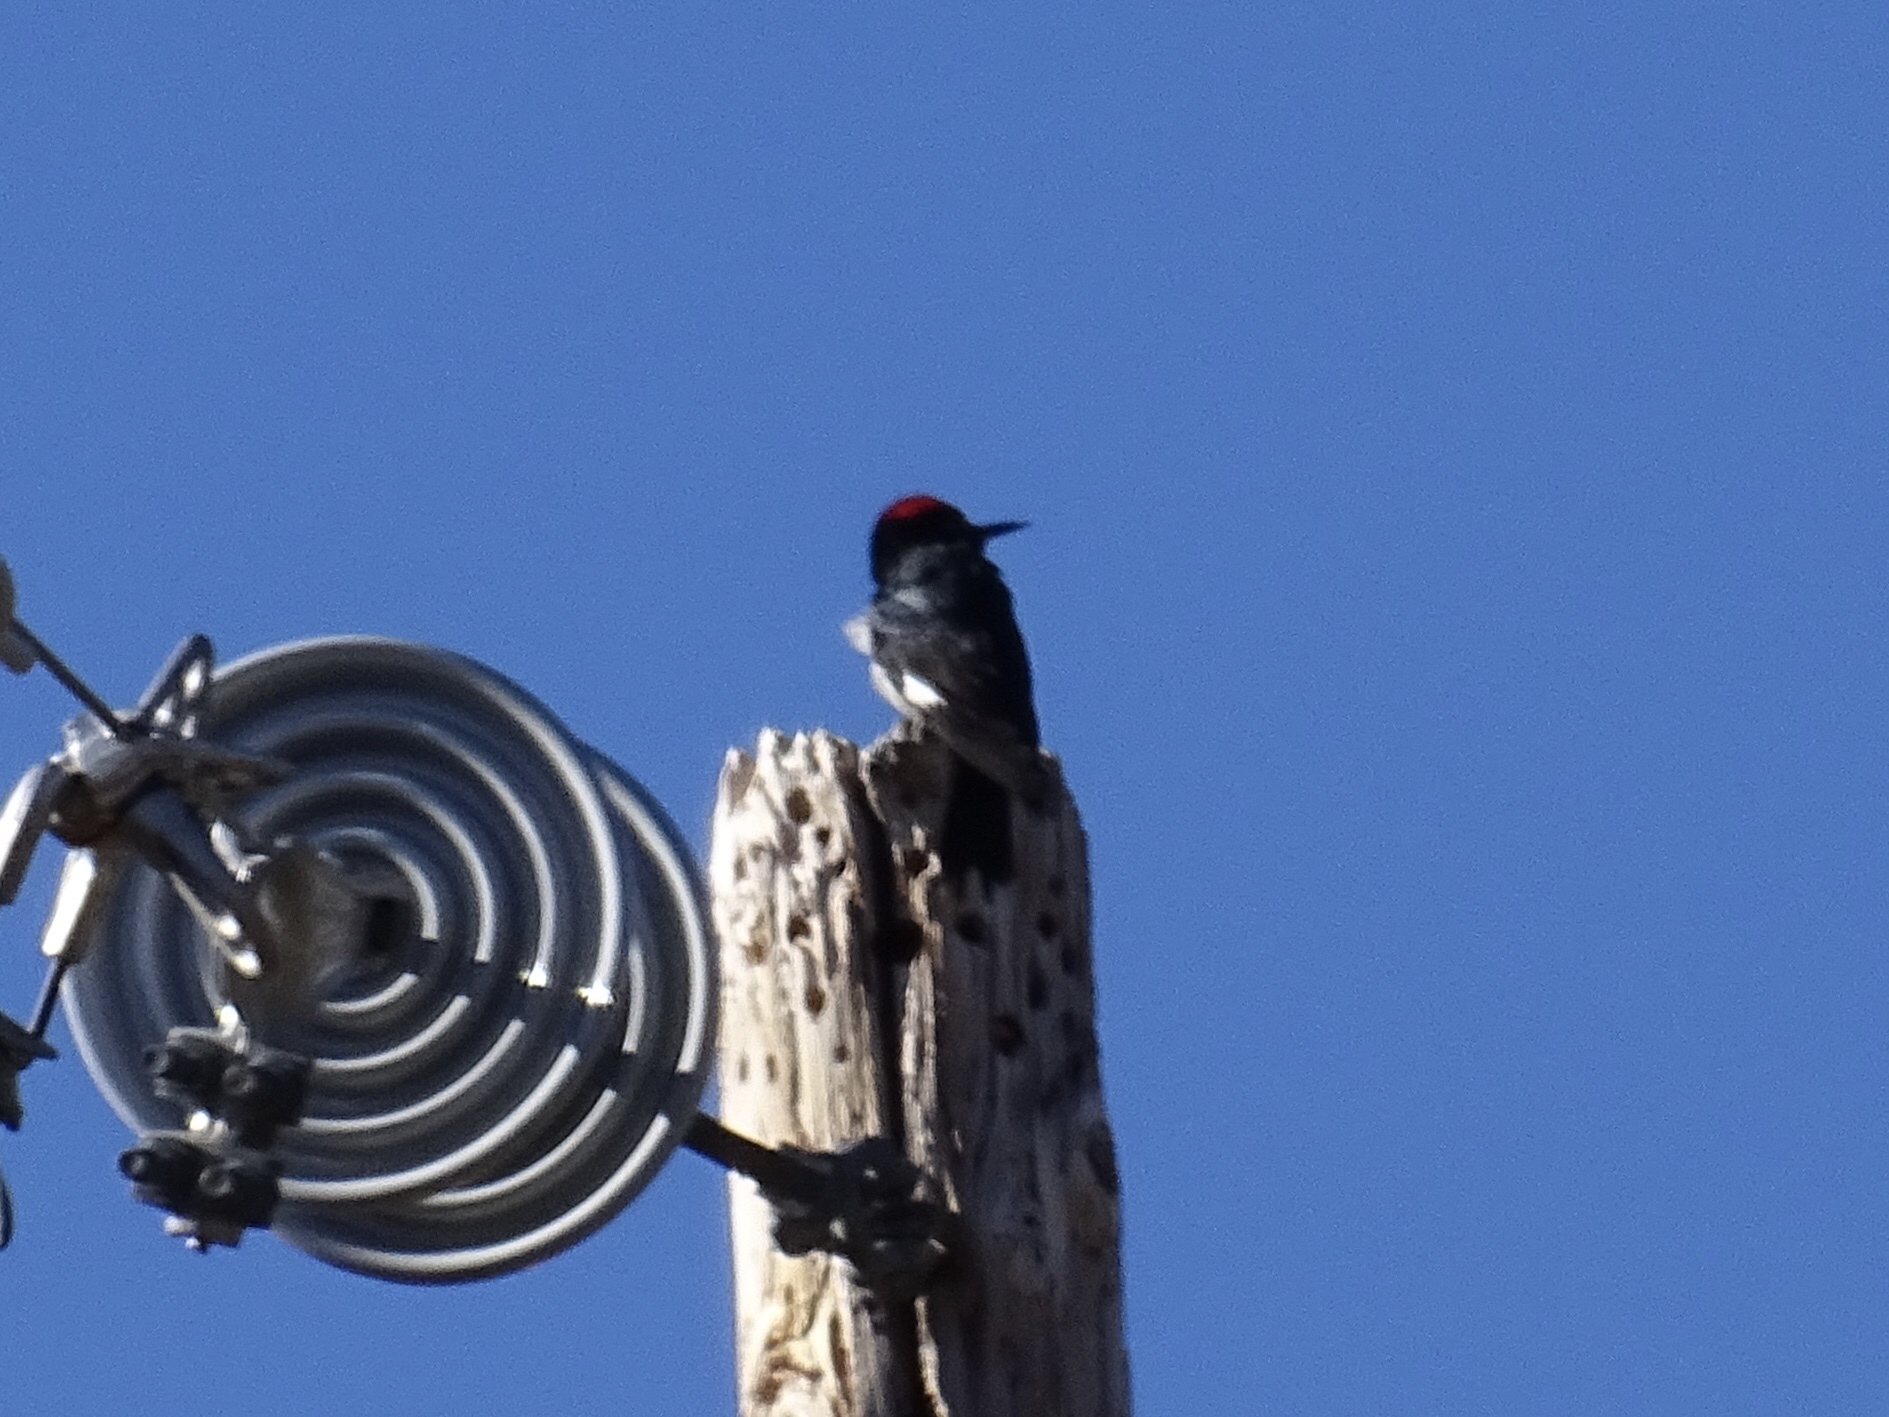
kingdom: Animalia
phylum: Chordata
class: Aves
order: Piciformes
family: Picidae
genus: Melanerpes
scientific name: Melanerpes formicivorus
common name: Acorn woodpecker
